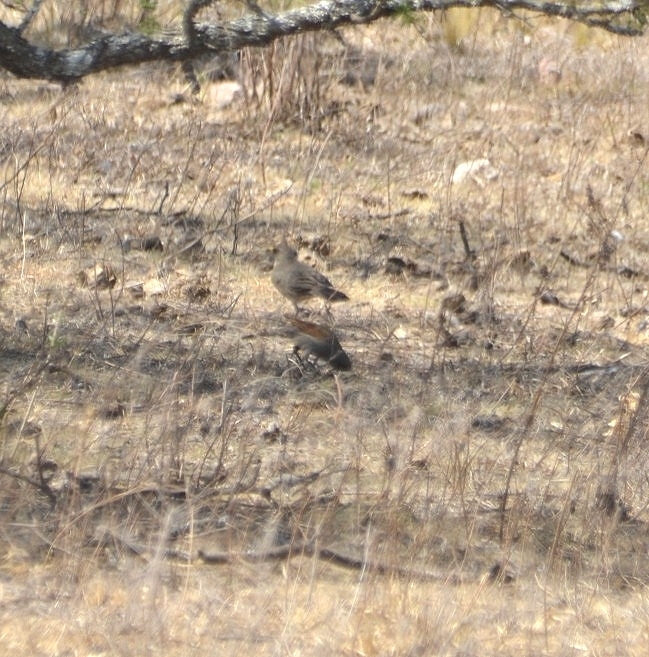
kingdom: Animalia
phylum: Chordata
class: Aves
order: Passeriformes
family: Icteridae
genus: Agelaioides
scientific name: Agelaioides badius
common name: Baywing
